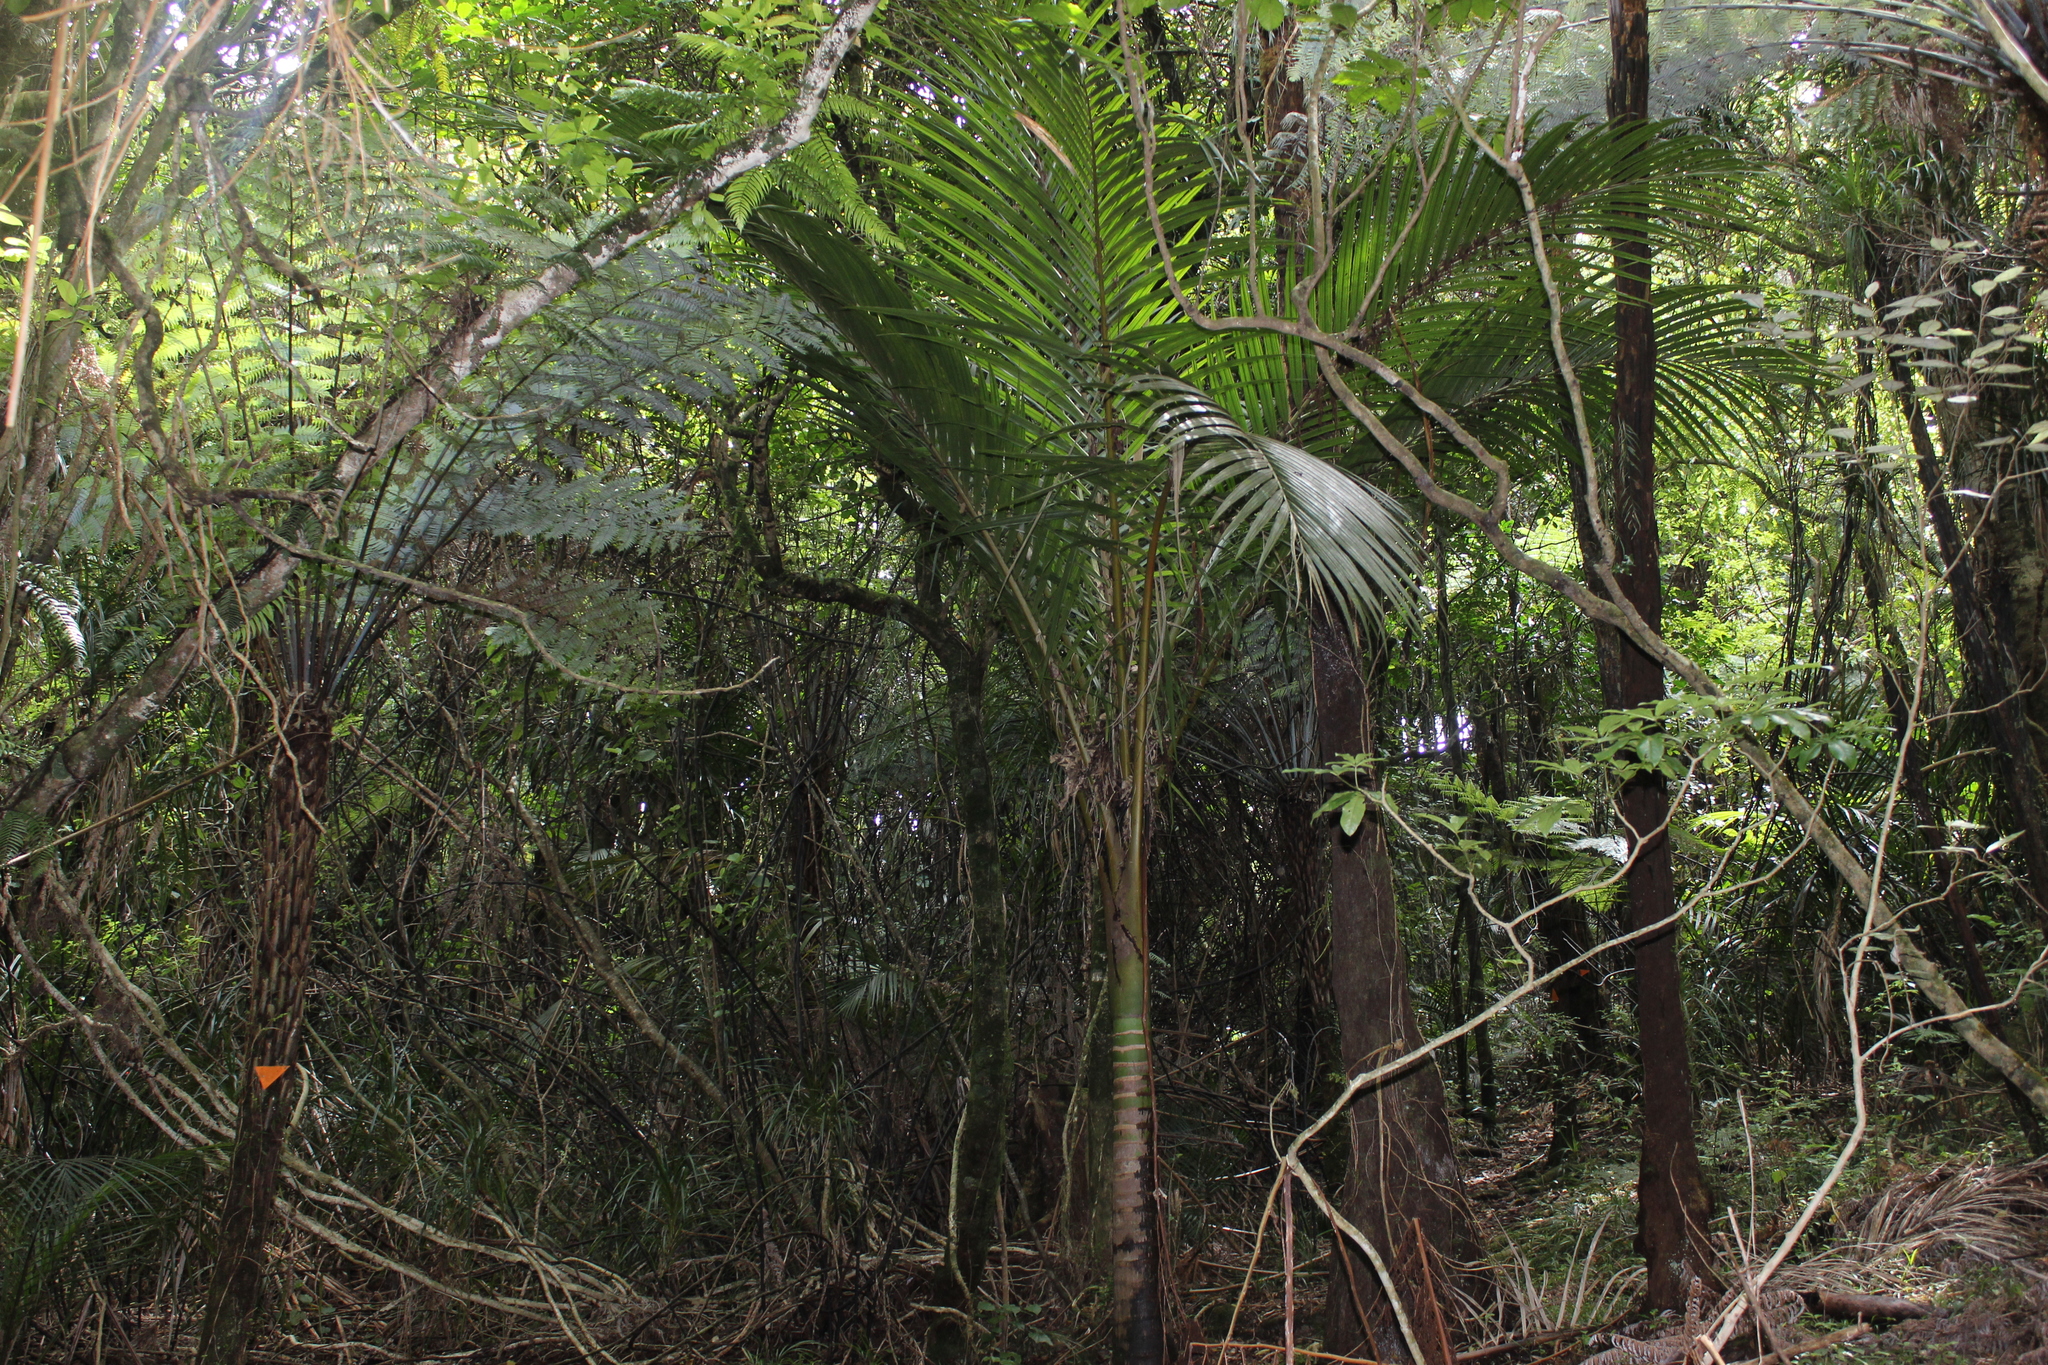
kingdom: Plantae
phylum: Tracheophyta
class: Liliopsida
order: Arecales
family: Arecaceae
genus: Rhopalostylis
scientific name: Rhopalostylis sapida
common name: Feather-duster palm
